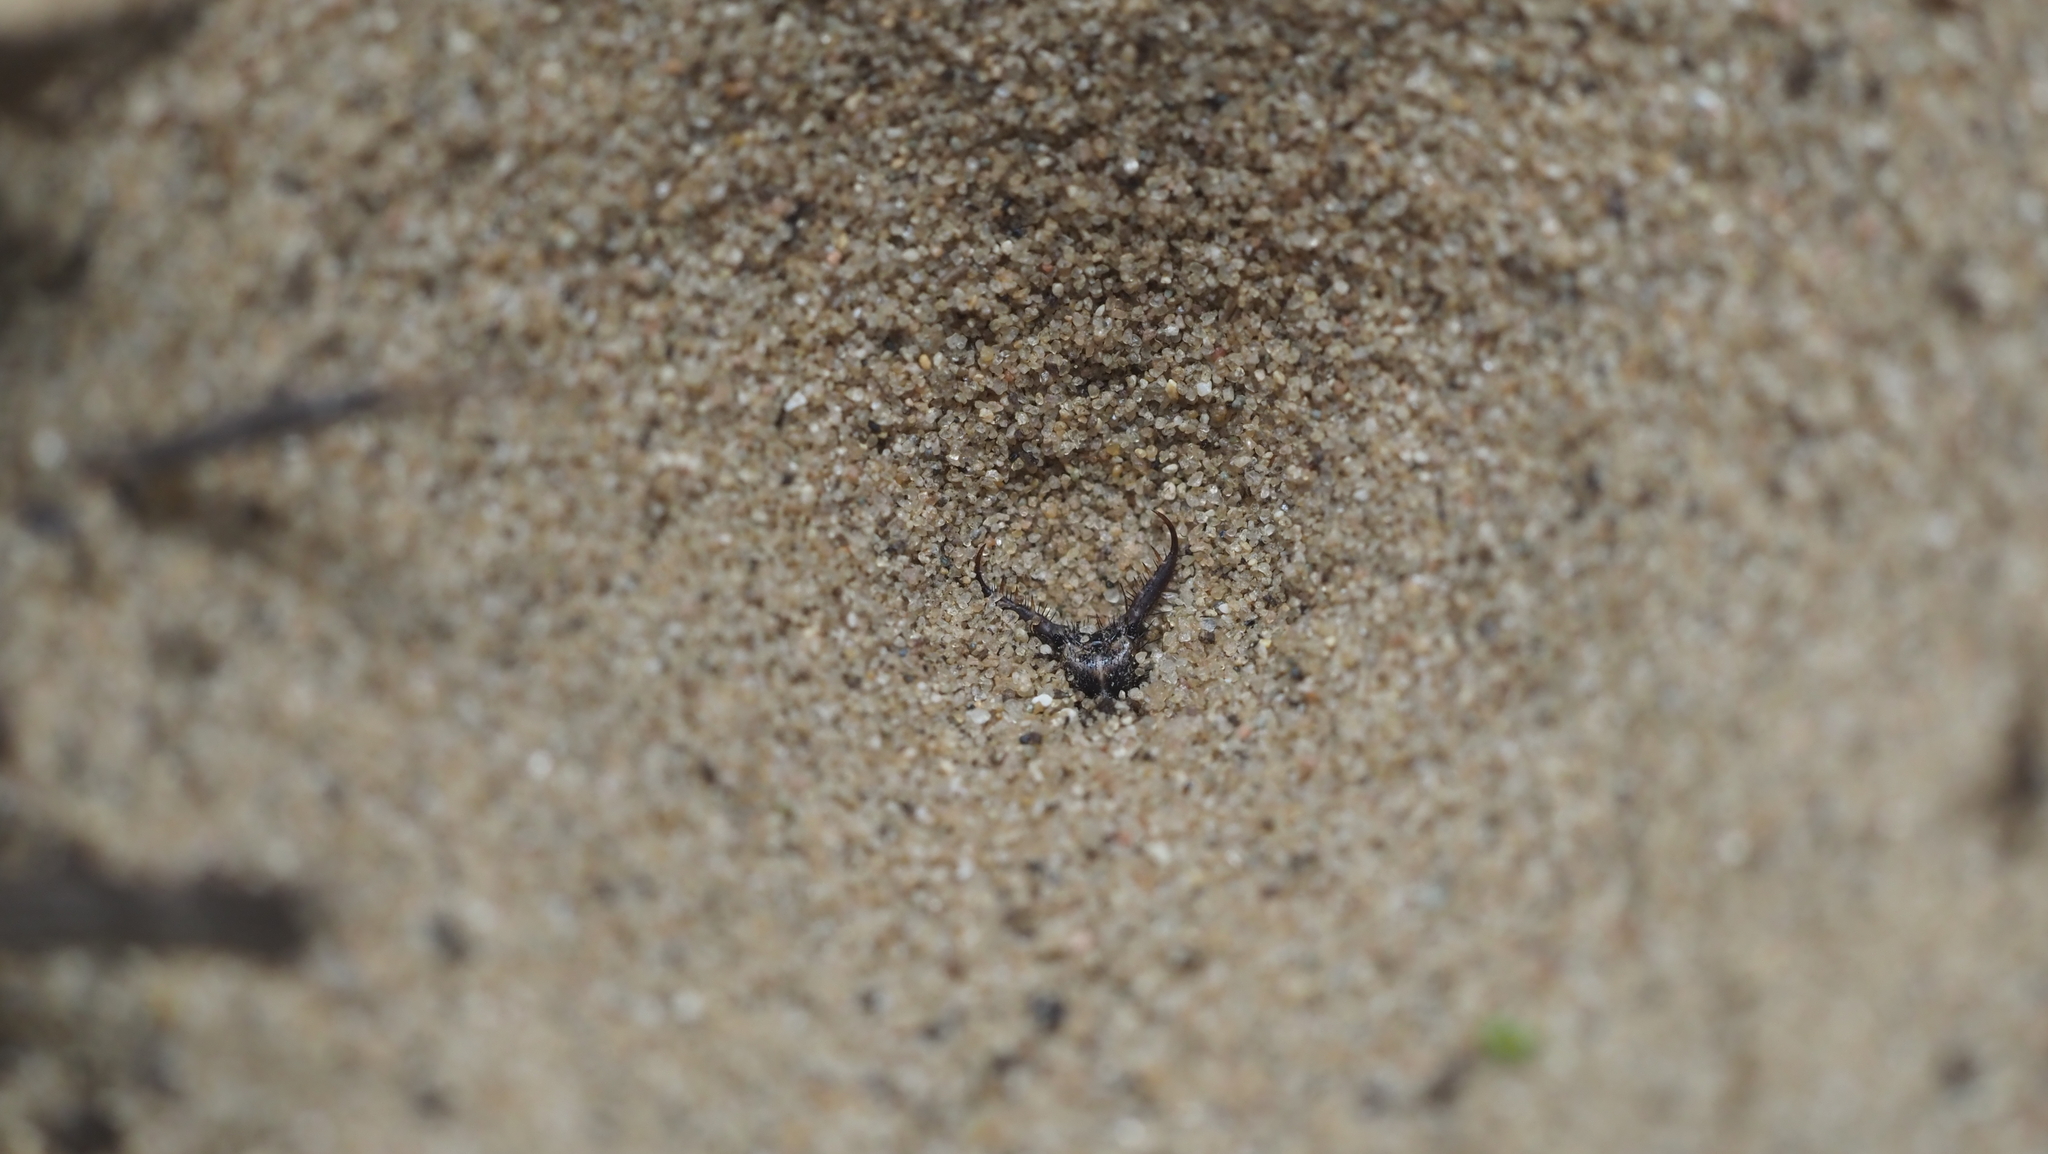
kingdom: Animalia
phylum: Arthropoda
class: Insecta
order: Neuroptera
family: Myrmeleontidae
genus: Myrmeleon
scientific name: Myrmeleon immaculatus
